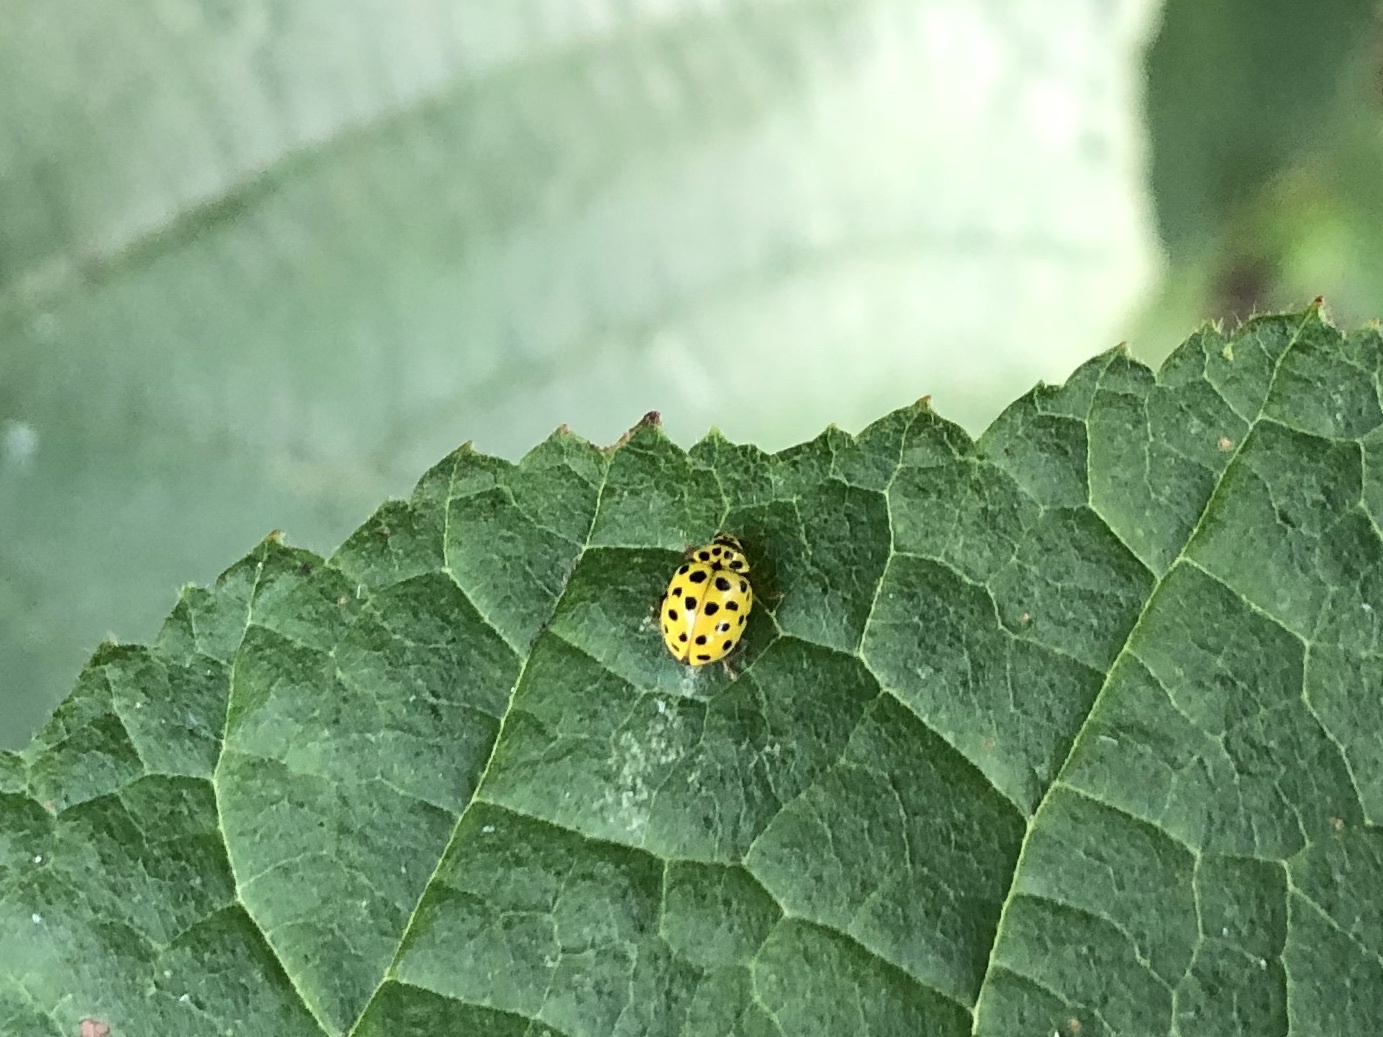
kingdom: Animalia
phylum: Arthropoda
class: Insecta
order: Coleoptera
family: Coccinellidae
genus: Psyllobora
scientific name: Psyllobora vigintiduopunctata
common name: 22-spot ladybird
